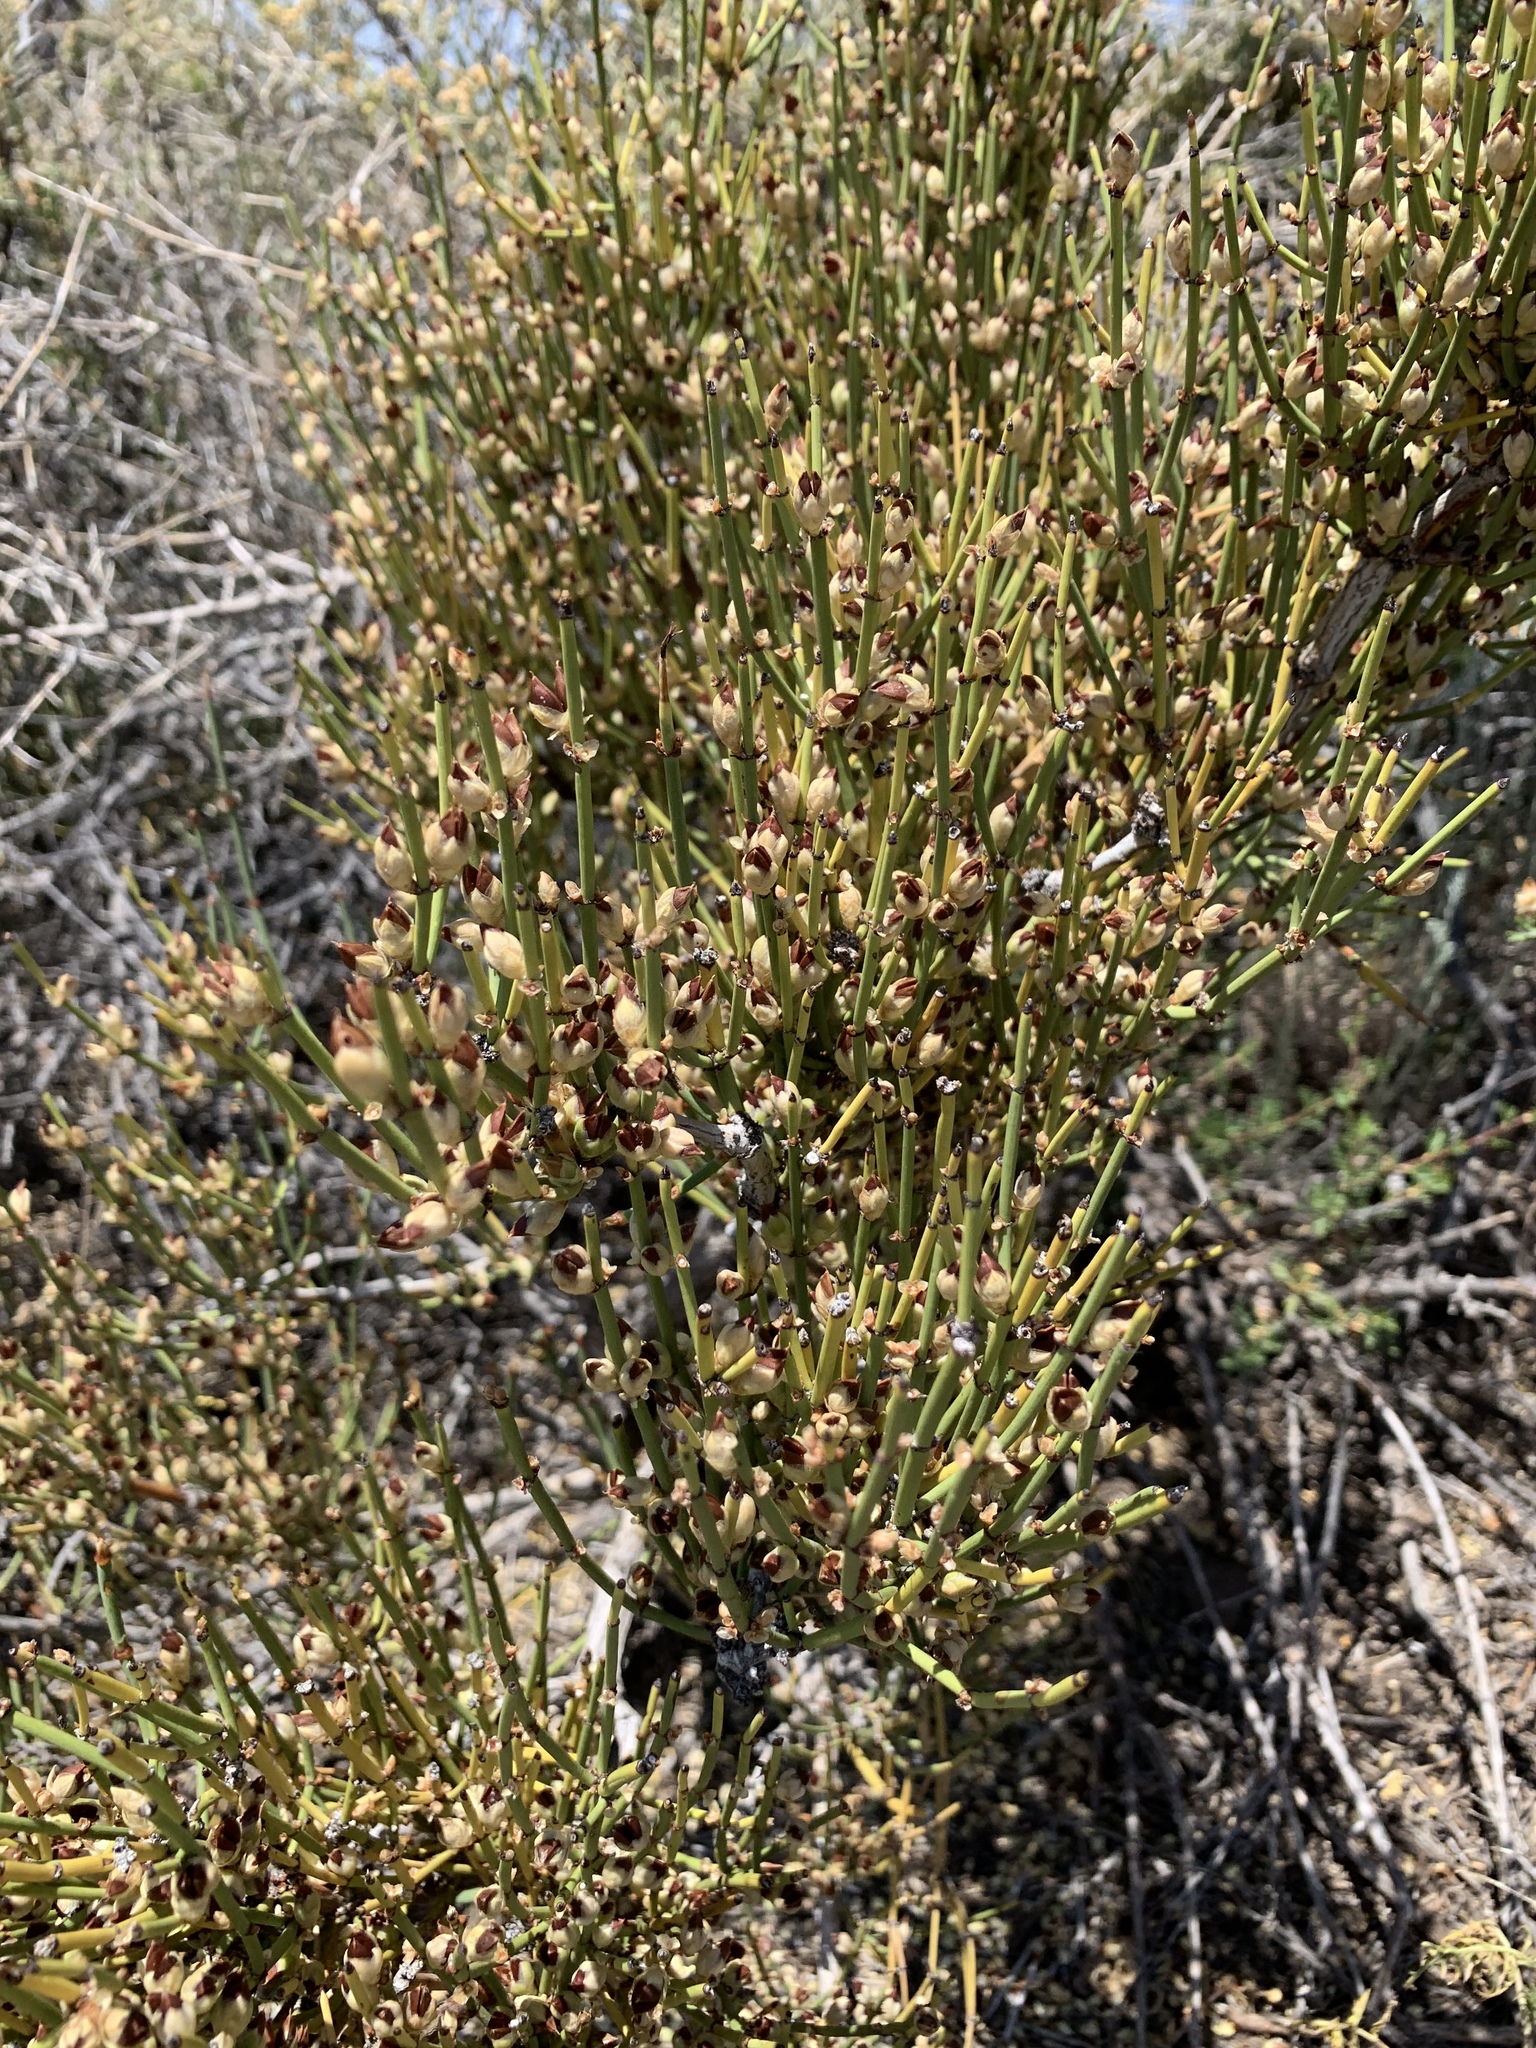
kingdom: Plantae
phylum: Tracheophyta
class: Gnetopsida
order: Ephedrales
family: Ephedraceae
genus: Ephedra
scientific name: Ephedra viridis
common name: Green ephedra
